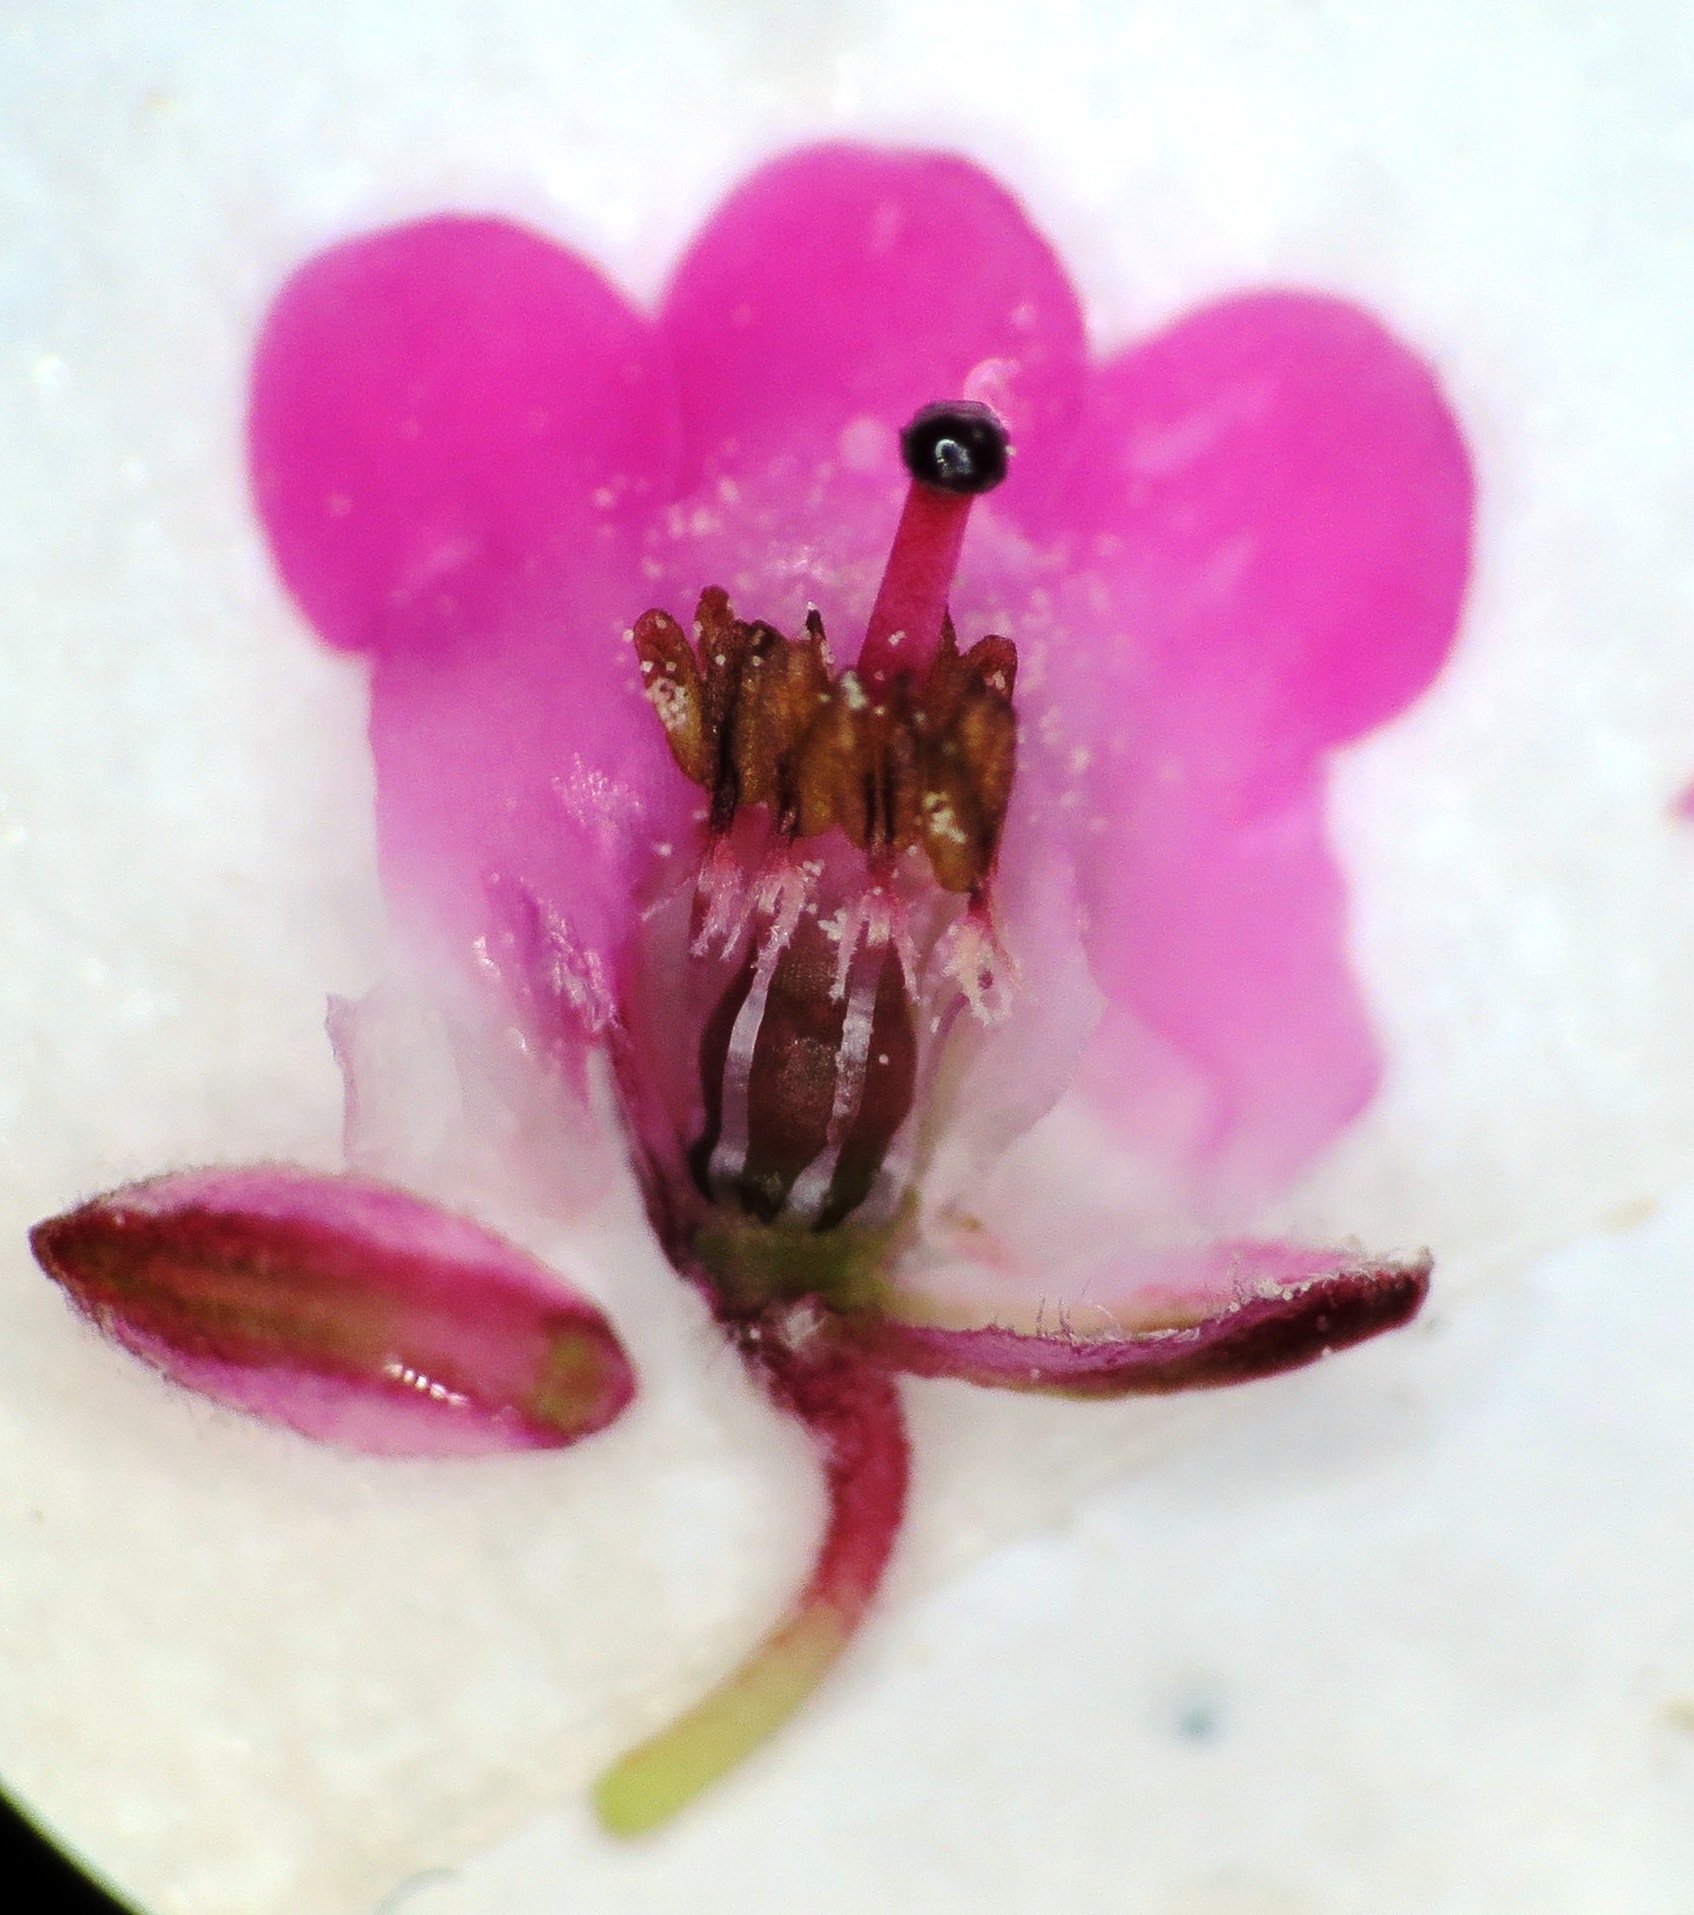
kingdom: Plantae
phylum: Tracheophyta
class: Magnoliopsida
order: Ericales
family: Ericaceae
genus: Erica
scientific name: Erica longiaristata
